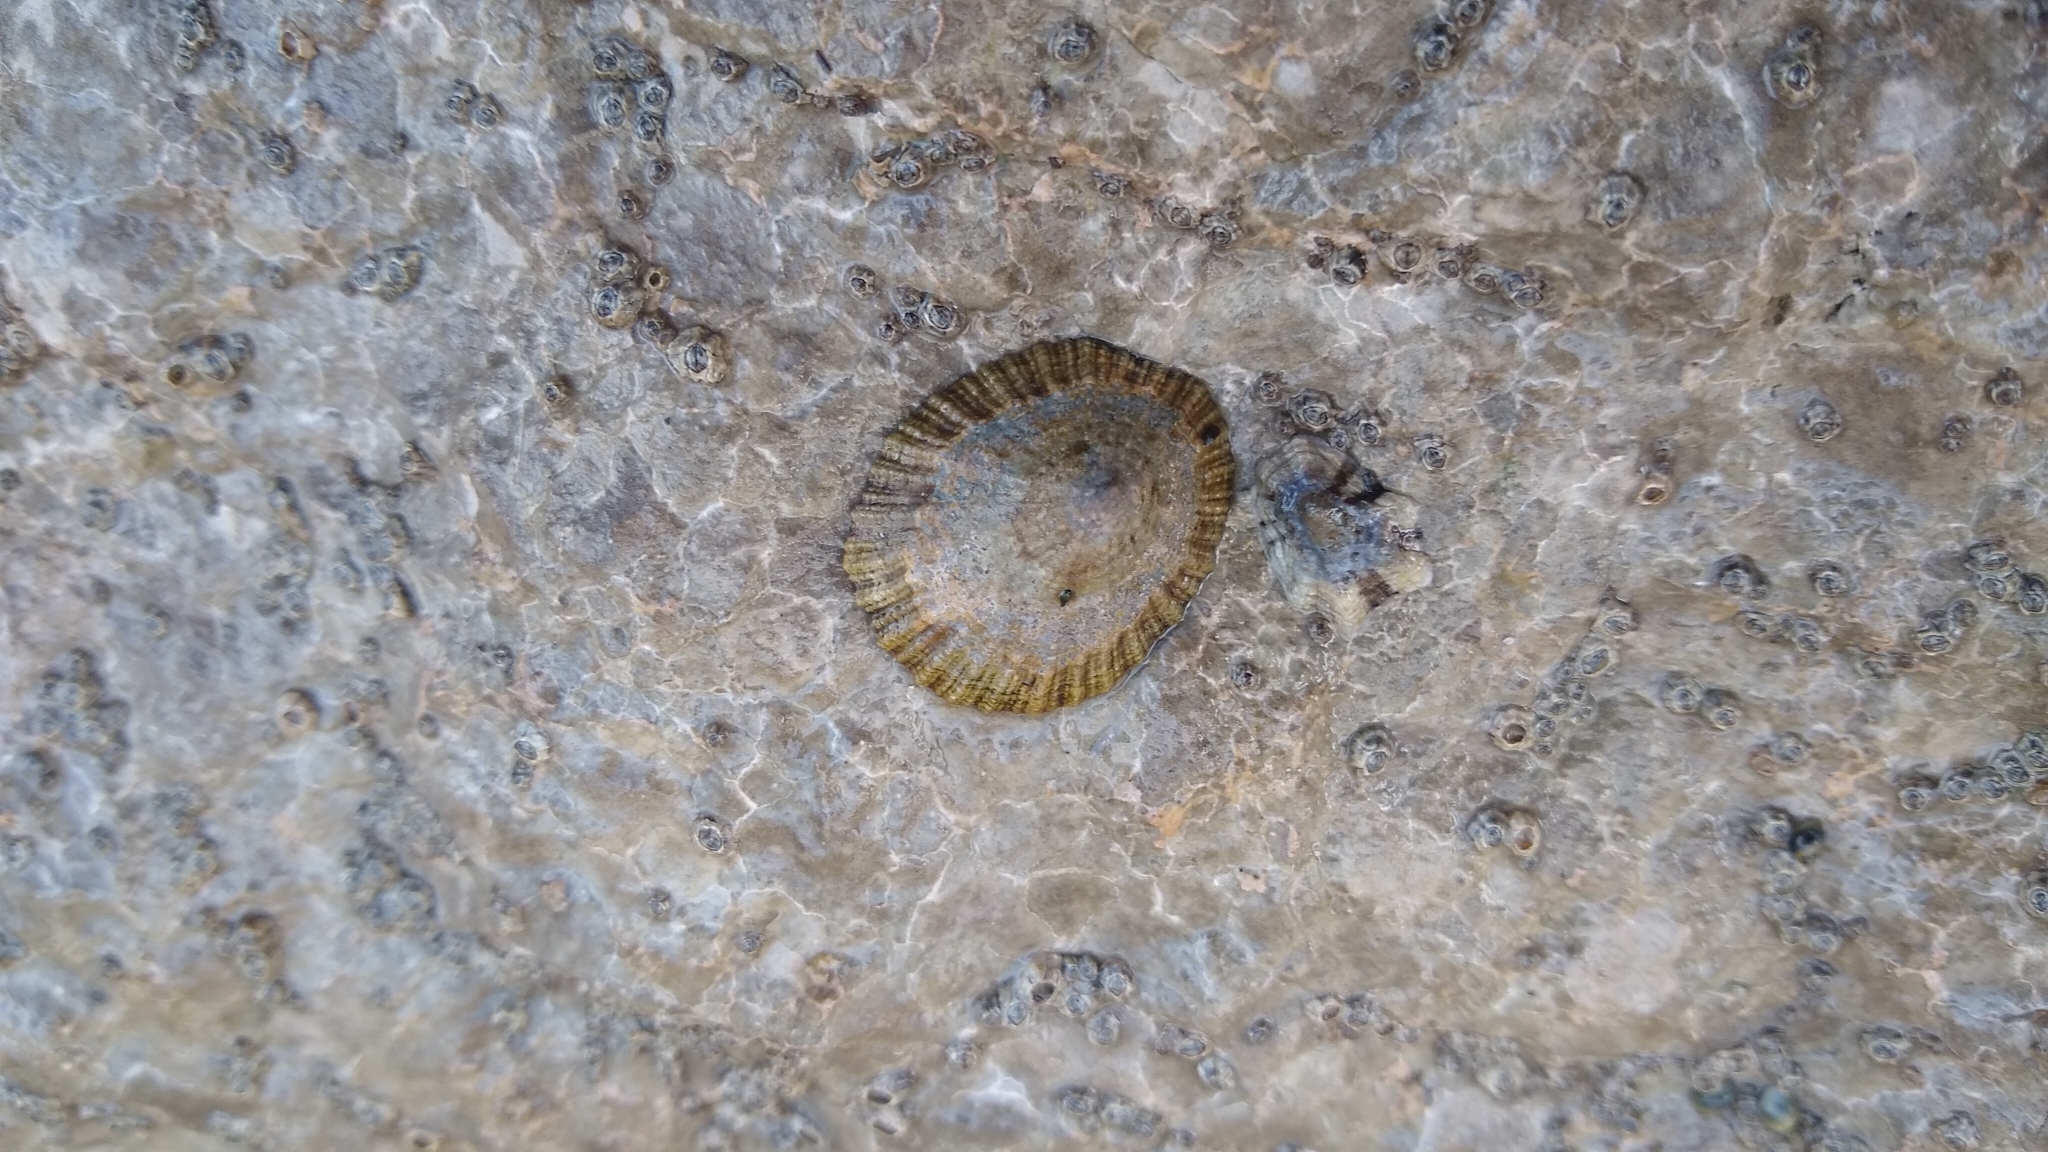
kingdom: Animalia
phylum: Mollusca
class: Gastropoda
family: Patellidae
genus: Patella
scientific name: Patella caerulea
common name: Mediterranean limpet
